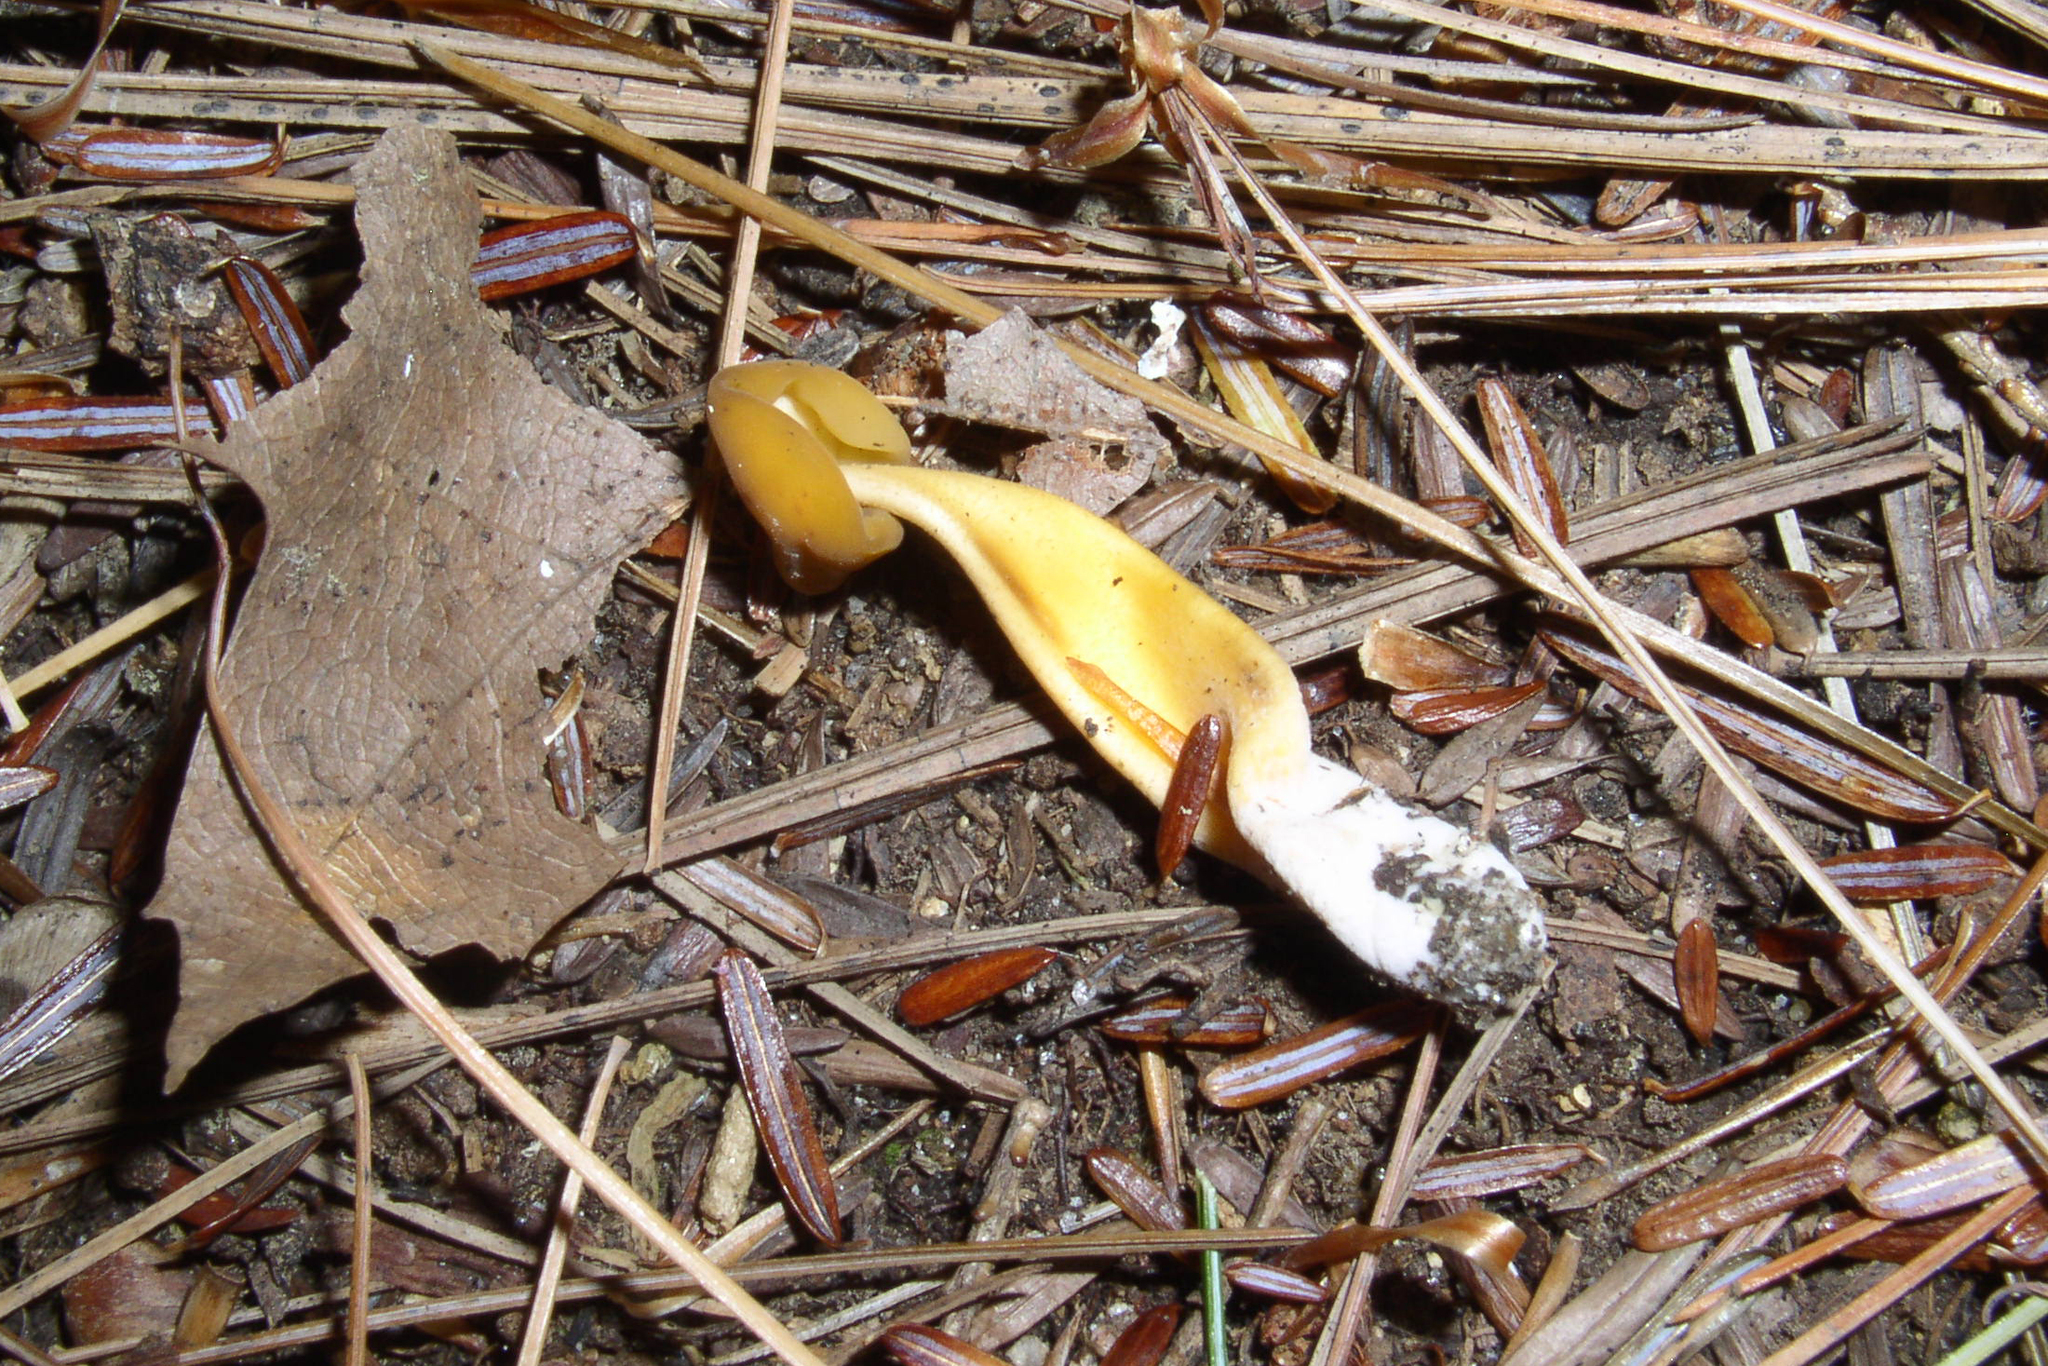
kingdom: Fungi
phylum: Ascomycota
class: Leotiomycetes
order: Leotiales
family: Leotiaceae
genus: Leotia
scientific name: Leotia lubrica
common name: Jellybaby
